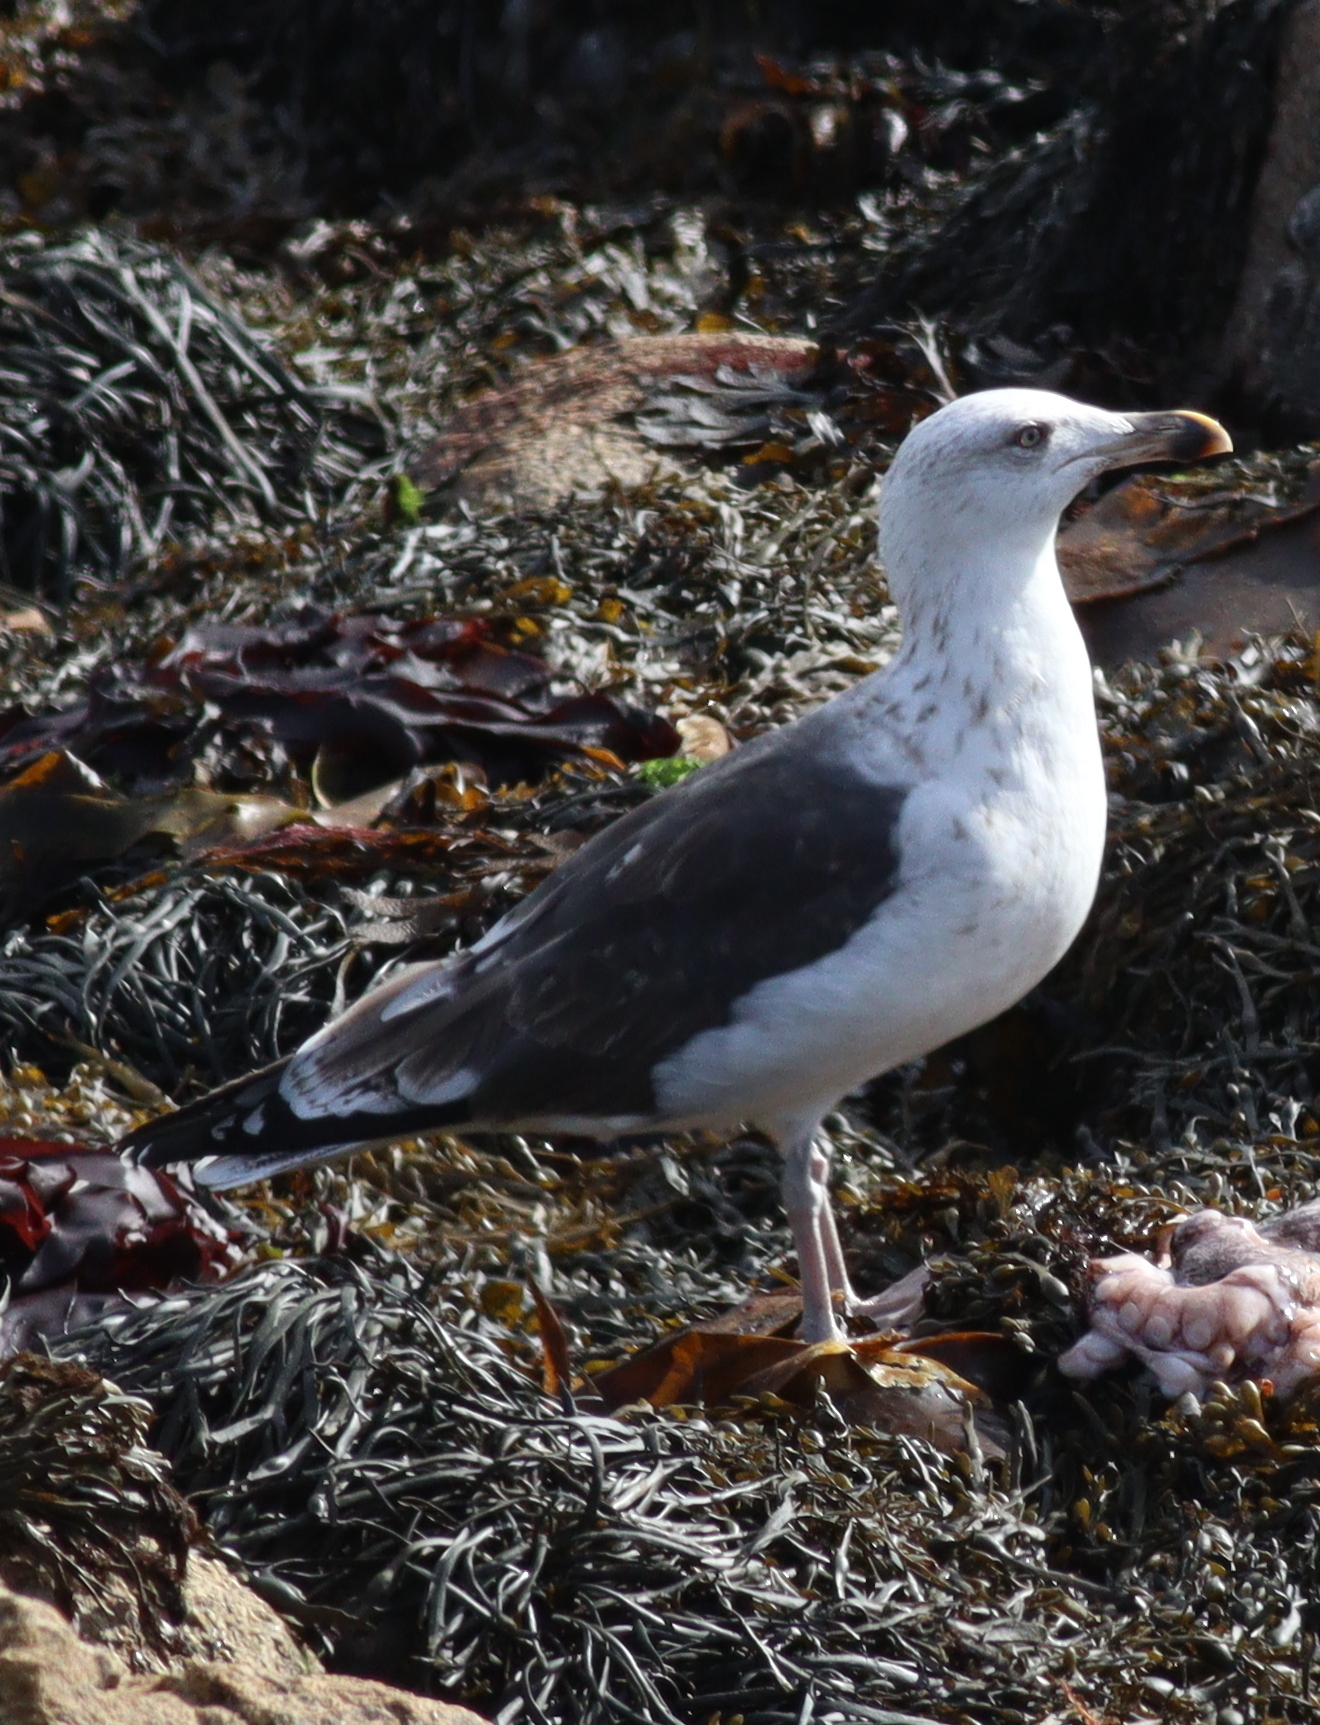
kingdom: Animalia
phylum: Chordata
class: Aves
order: Charadriiformes
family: Laridae
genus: Larus
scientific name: Larus marinus
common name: Great black-backed gull
